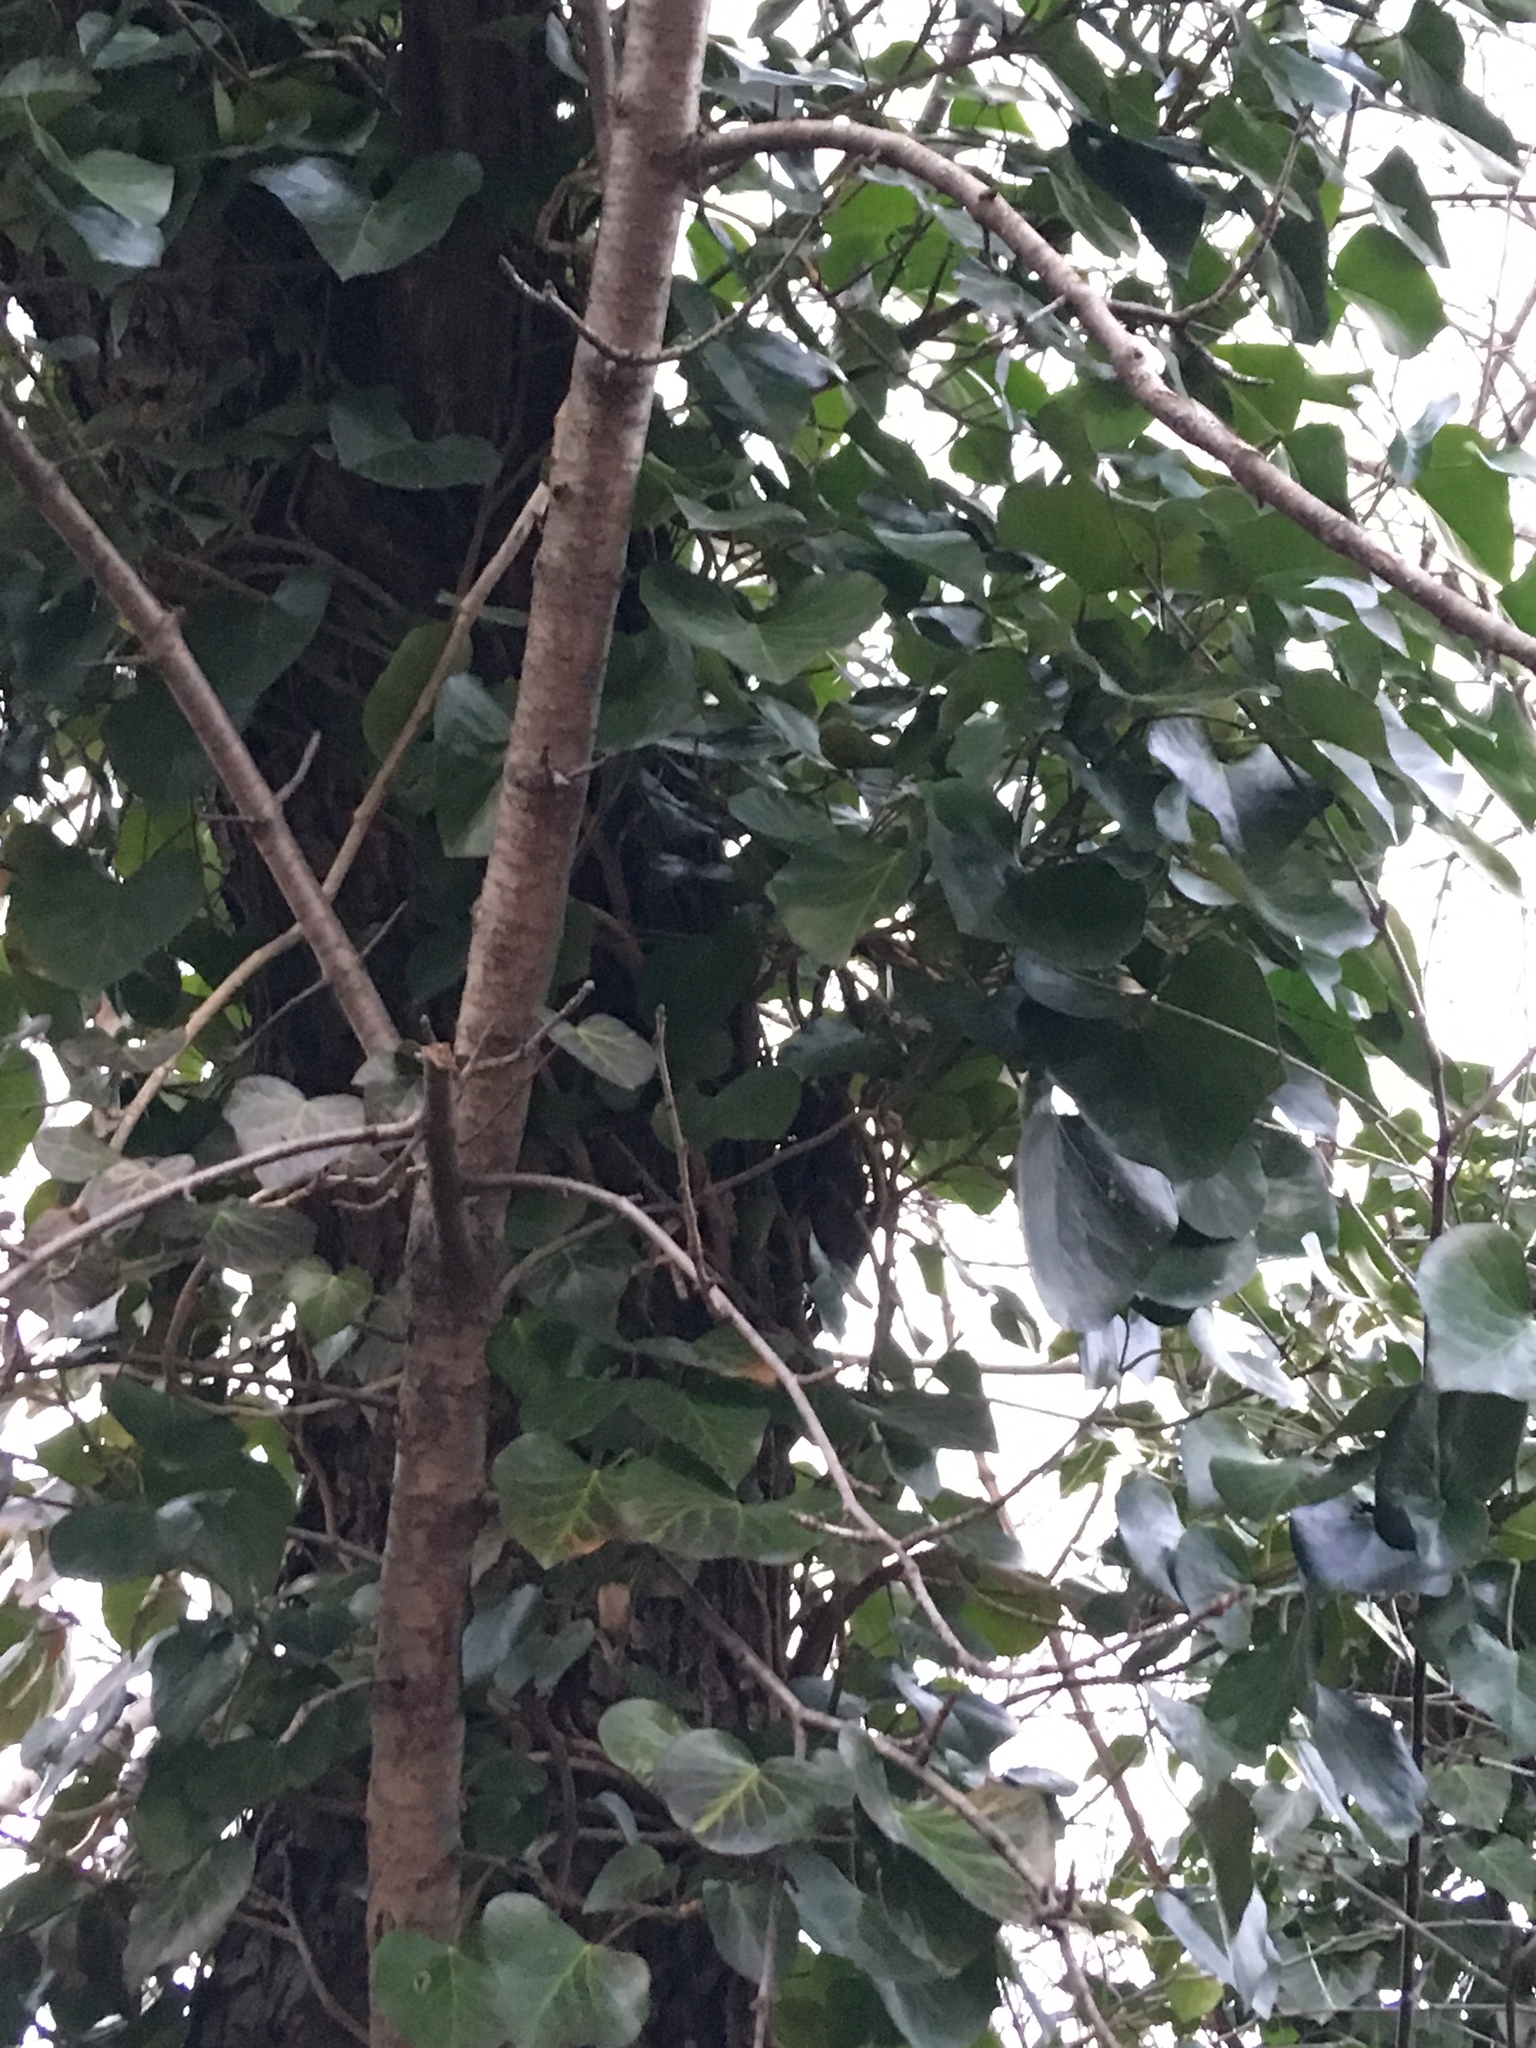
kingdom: Plantae
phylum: Tracheophyta
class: Magnoliopsida
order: Apiales
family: Araliaceae
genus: Hedera
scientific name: Hedera helix
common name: Ivy
